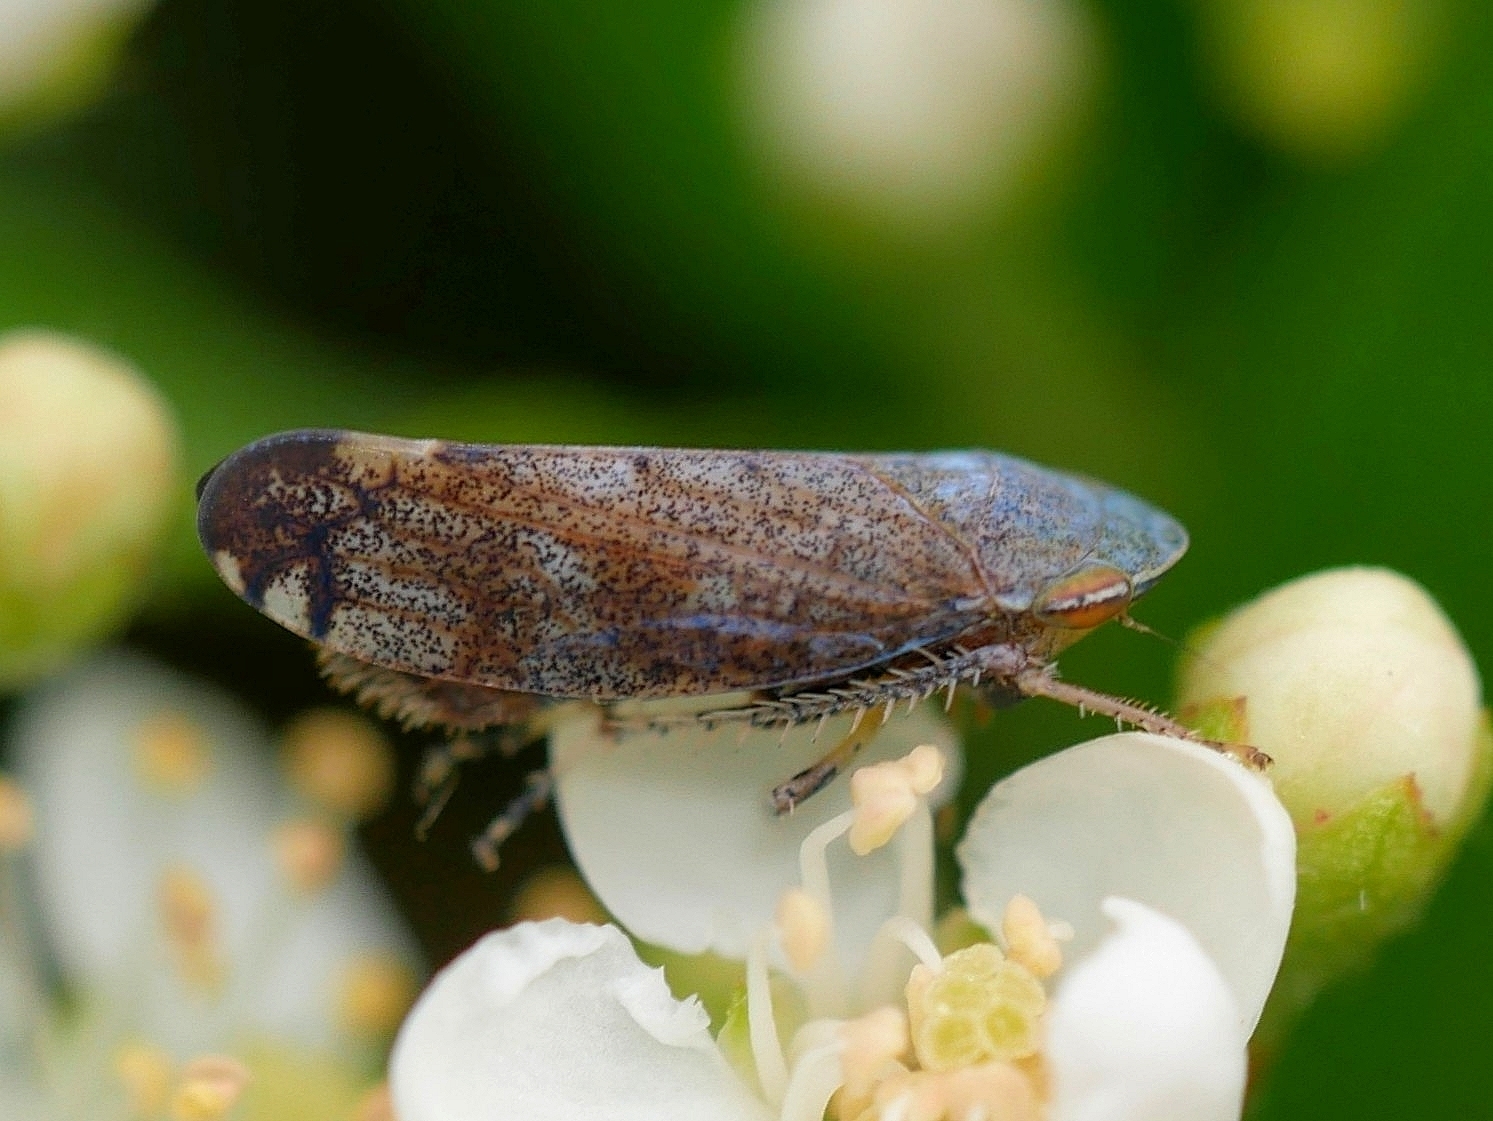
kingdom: Animalia
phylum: Arthropoda
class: Insecta
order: Hemiptera
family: Cicadellidae
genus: Fieberiella
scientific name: Fieberiella florii
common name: Flor’s leafhopper
